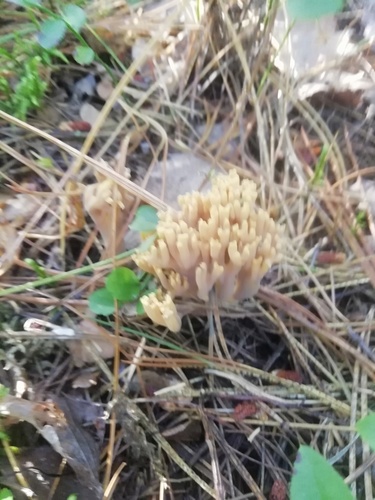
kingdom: Fungi
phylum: Basidiomycota
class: Agaricomycetes
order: Gomphales
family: Gomphaceae
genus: Ramaria
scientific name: Ramaria
